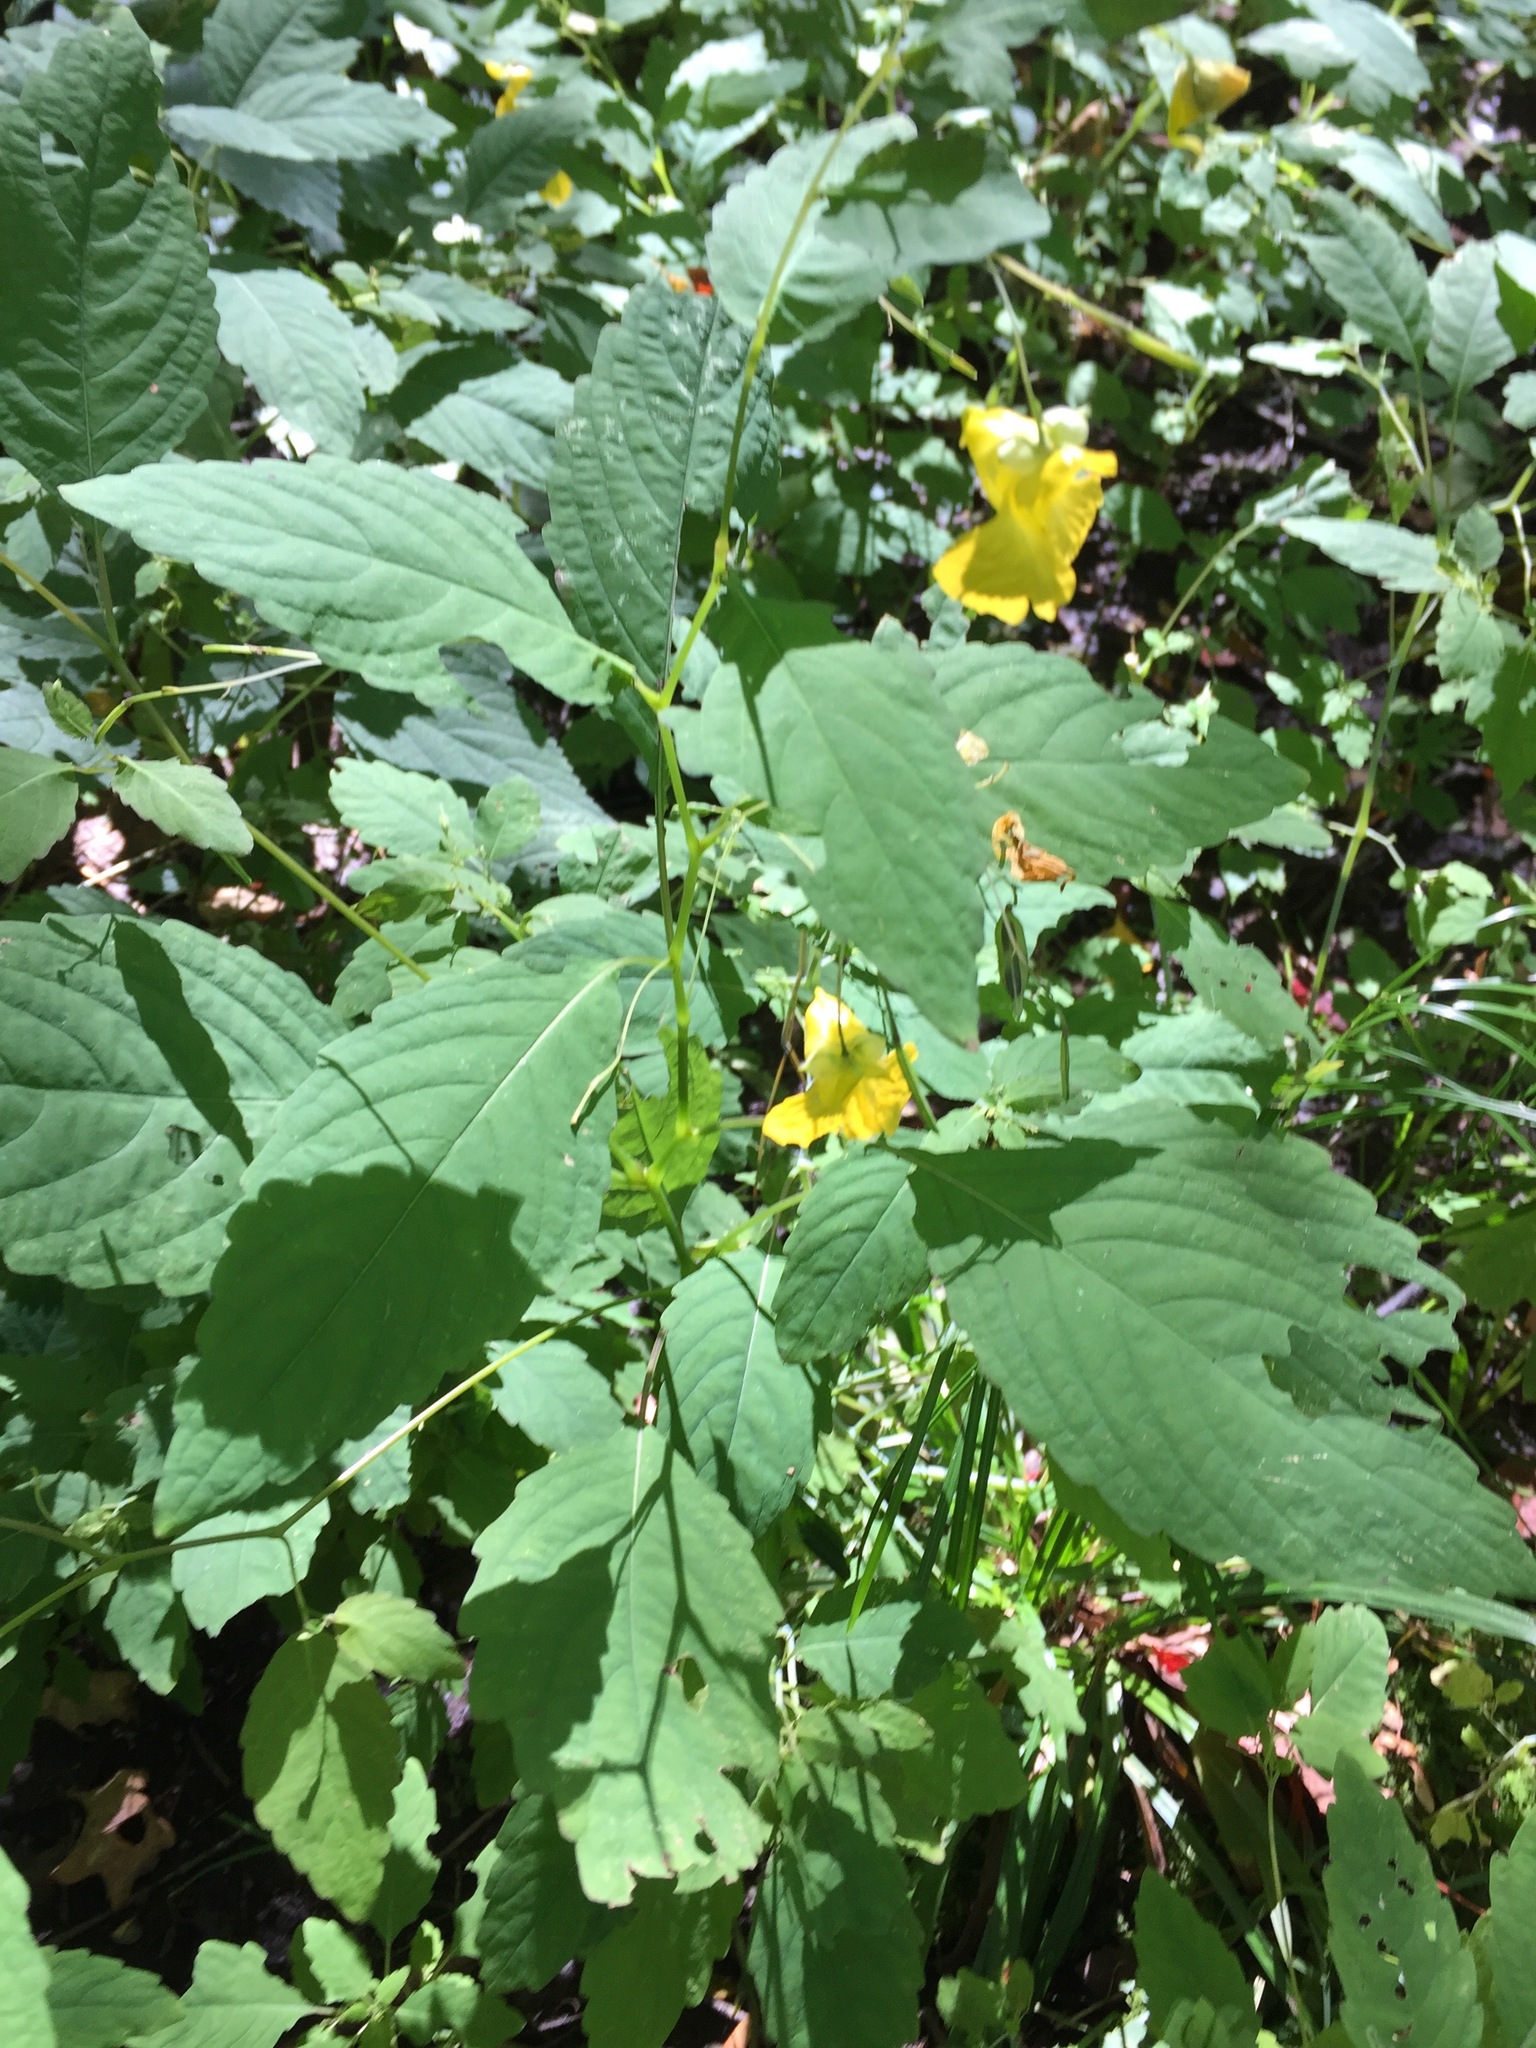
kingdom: Plantae
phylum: Tracheophyta
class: Magnoliopsida
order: Ericales
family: Balsaminaceae
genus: Impatiens
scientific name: Impatiens pallida
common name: Pale snapweed
